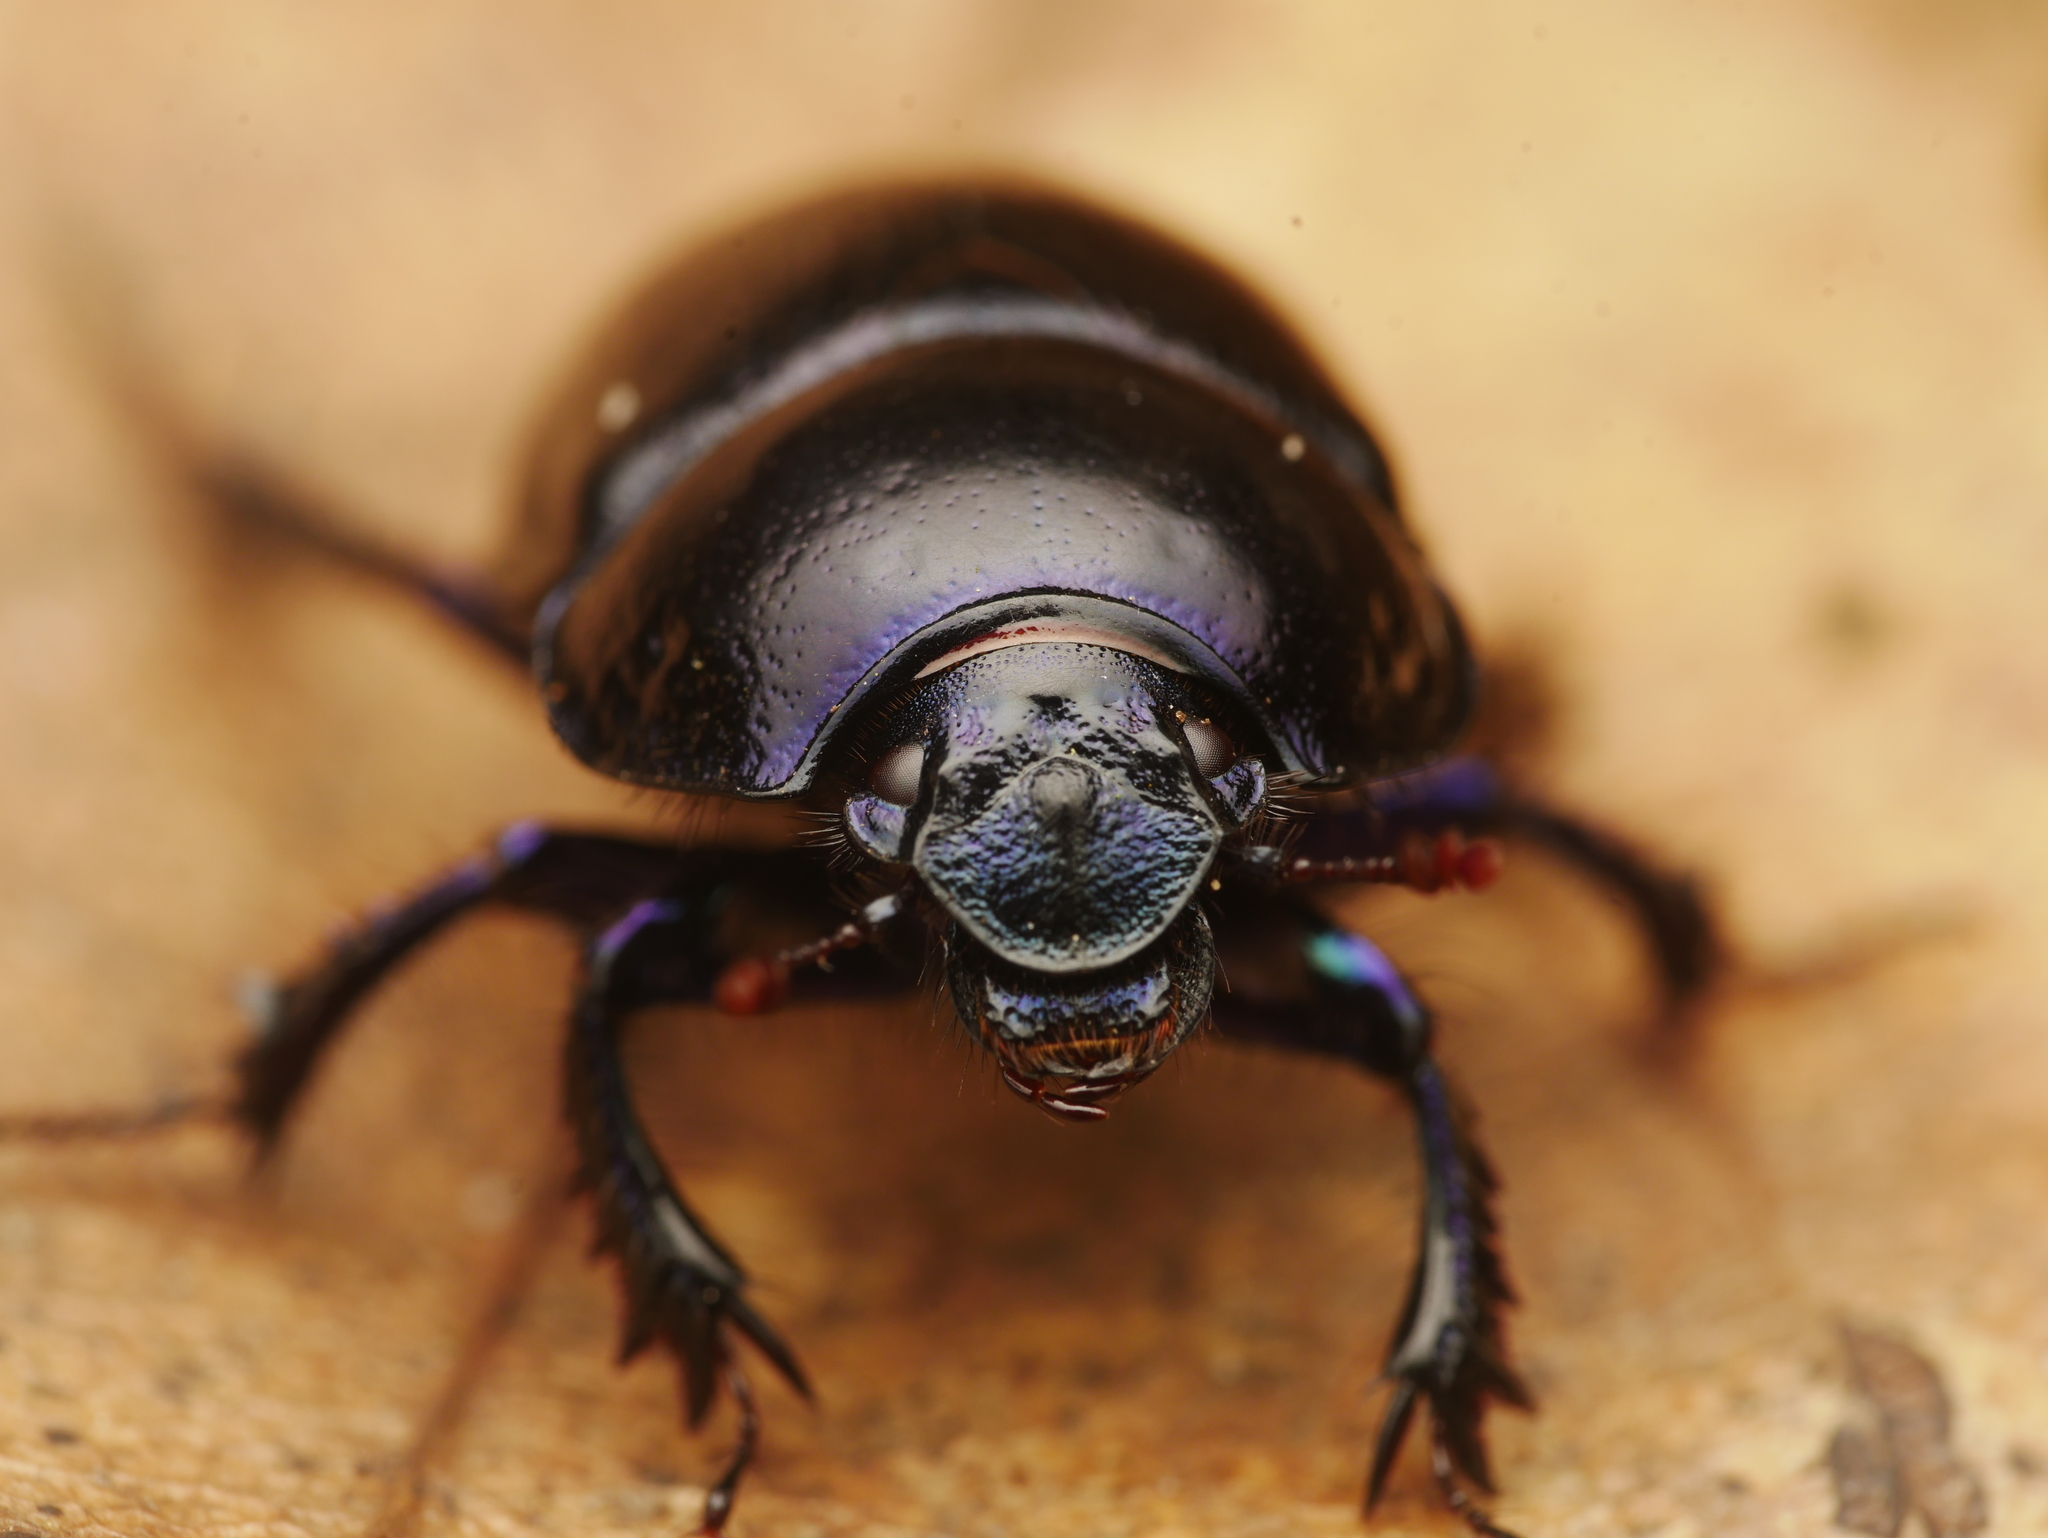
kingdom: Animalia
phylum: Arthropoda
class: Insecta
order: Coleoptera
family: Geotrupidae
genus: Anoplotrupes
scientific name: Anoplotrupes stercorosus
